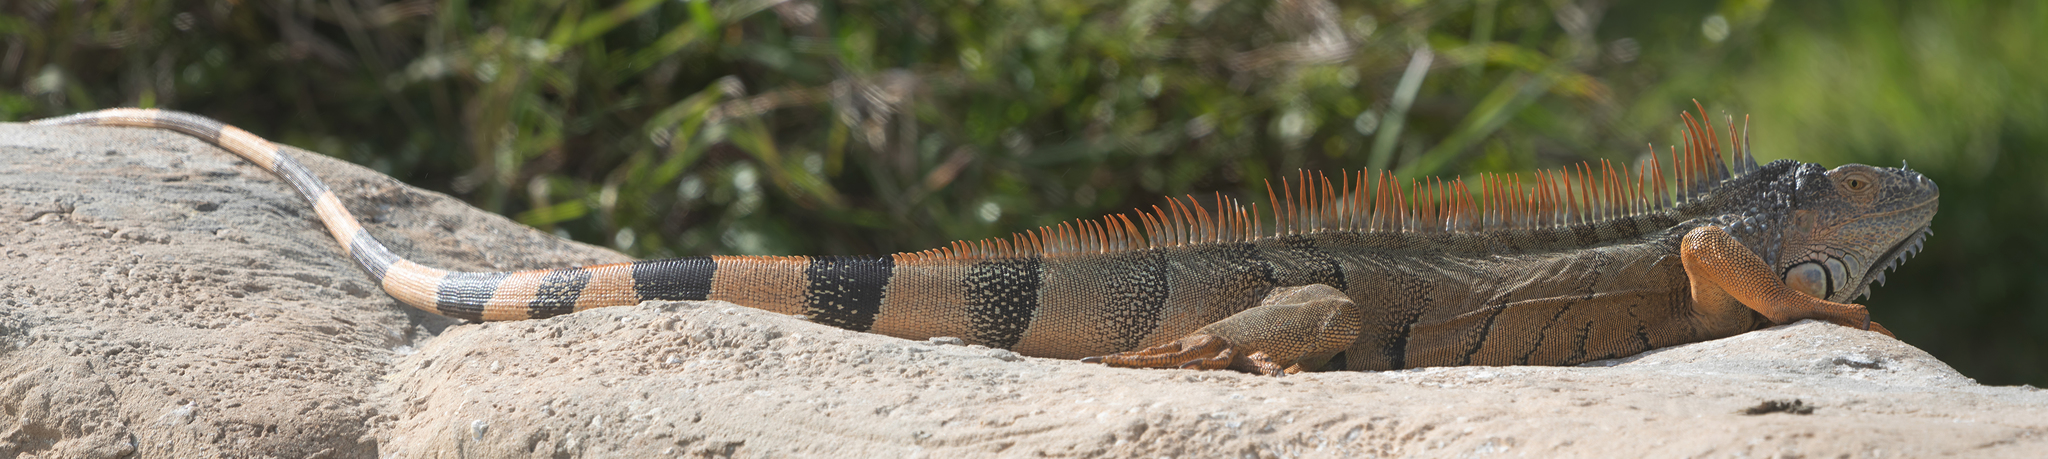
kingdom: Animalia
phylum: Chordata
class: Squamata
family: Iguanidae
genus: Iguana
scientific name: Iguana iguana
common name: Green iguana
